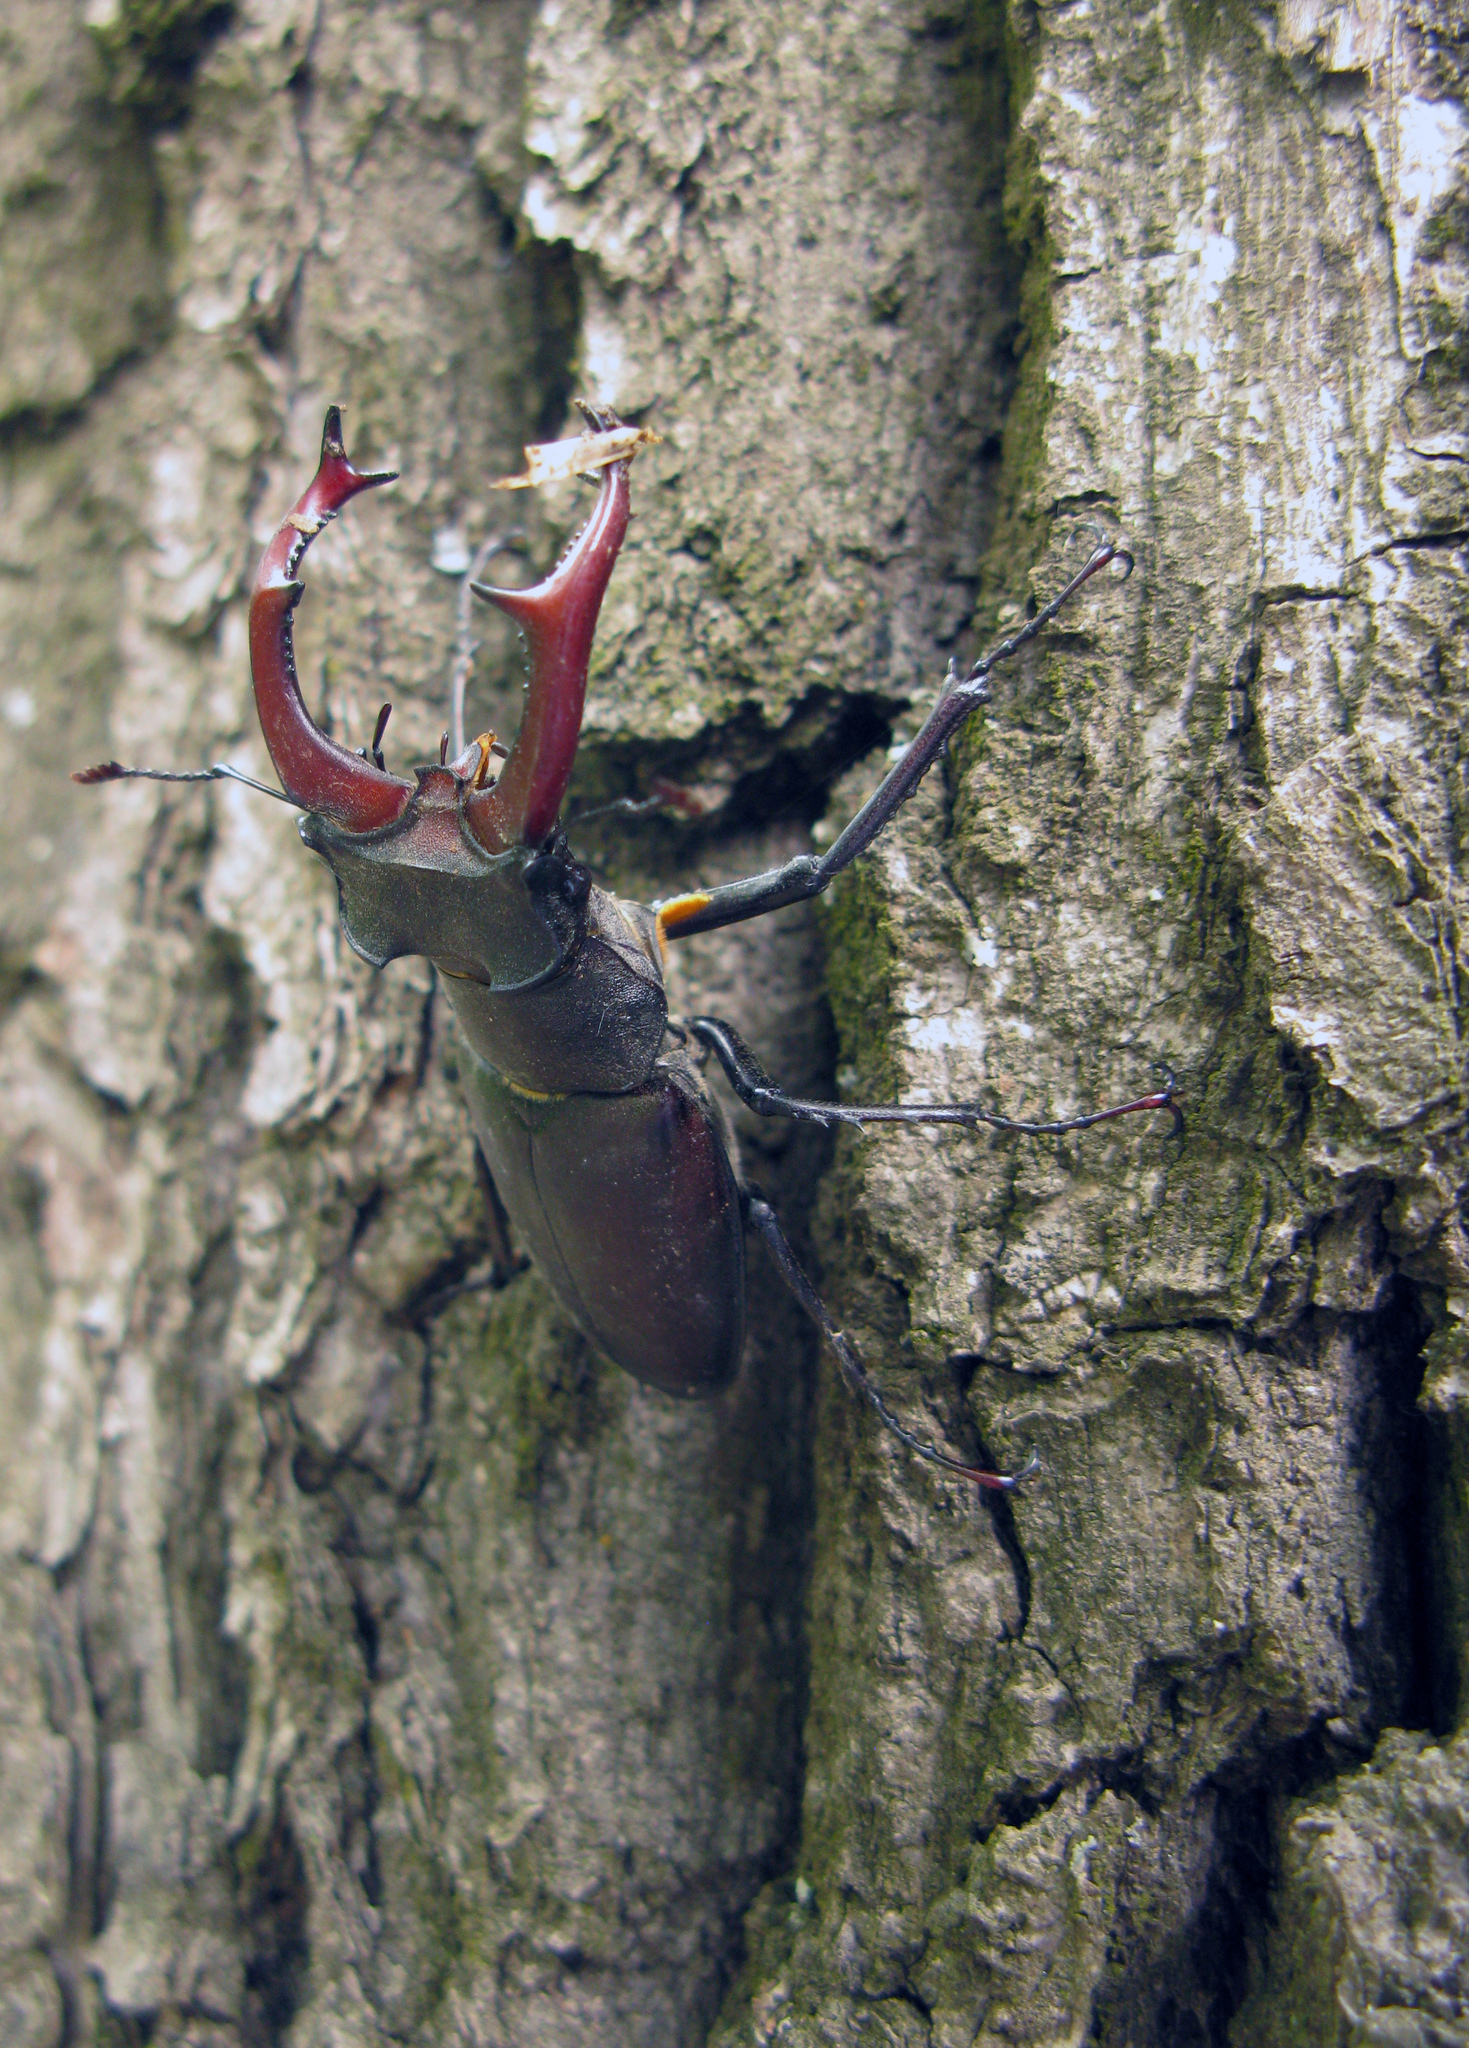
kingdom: Animalia
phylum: Arthropoda
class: Insecta
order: Coleoptera
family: Lucanidae
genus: Lucanus
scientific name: Lucanus cervus
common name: Stag beetle
